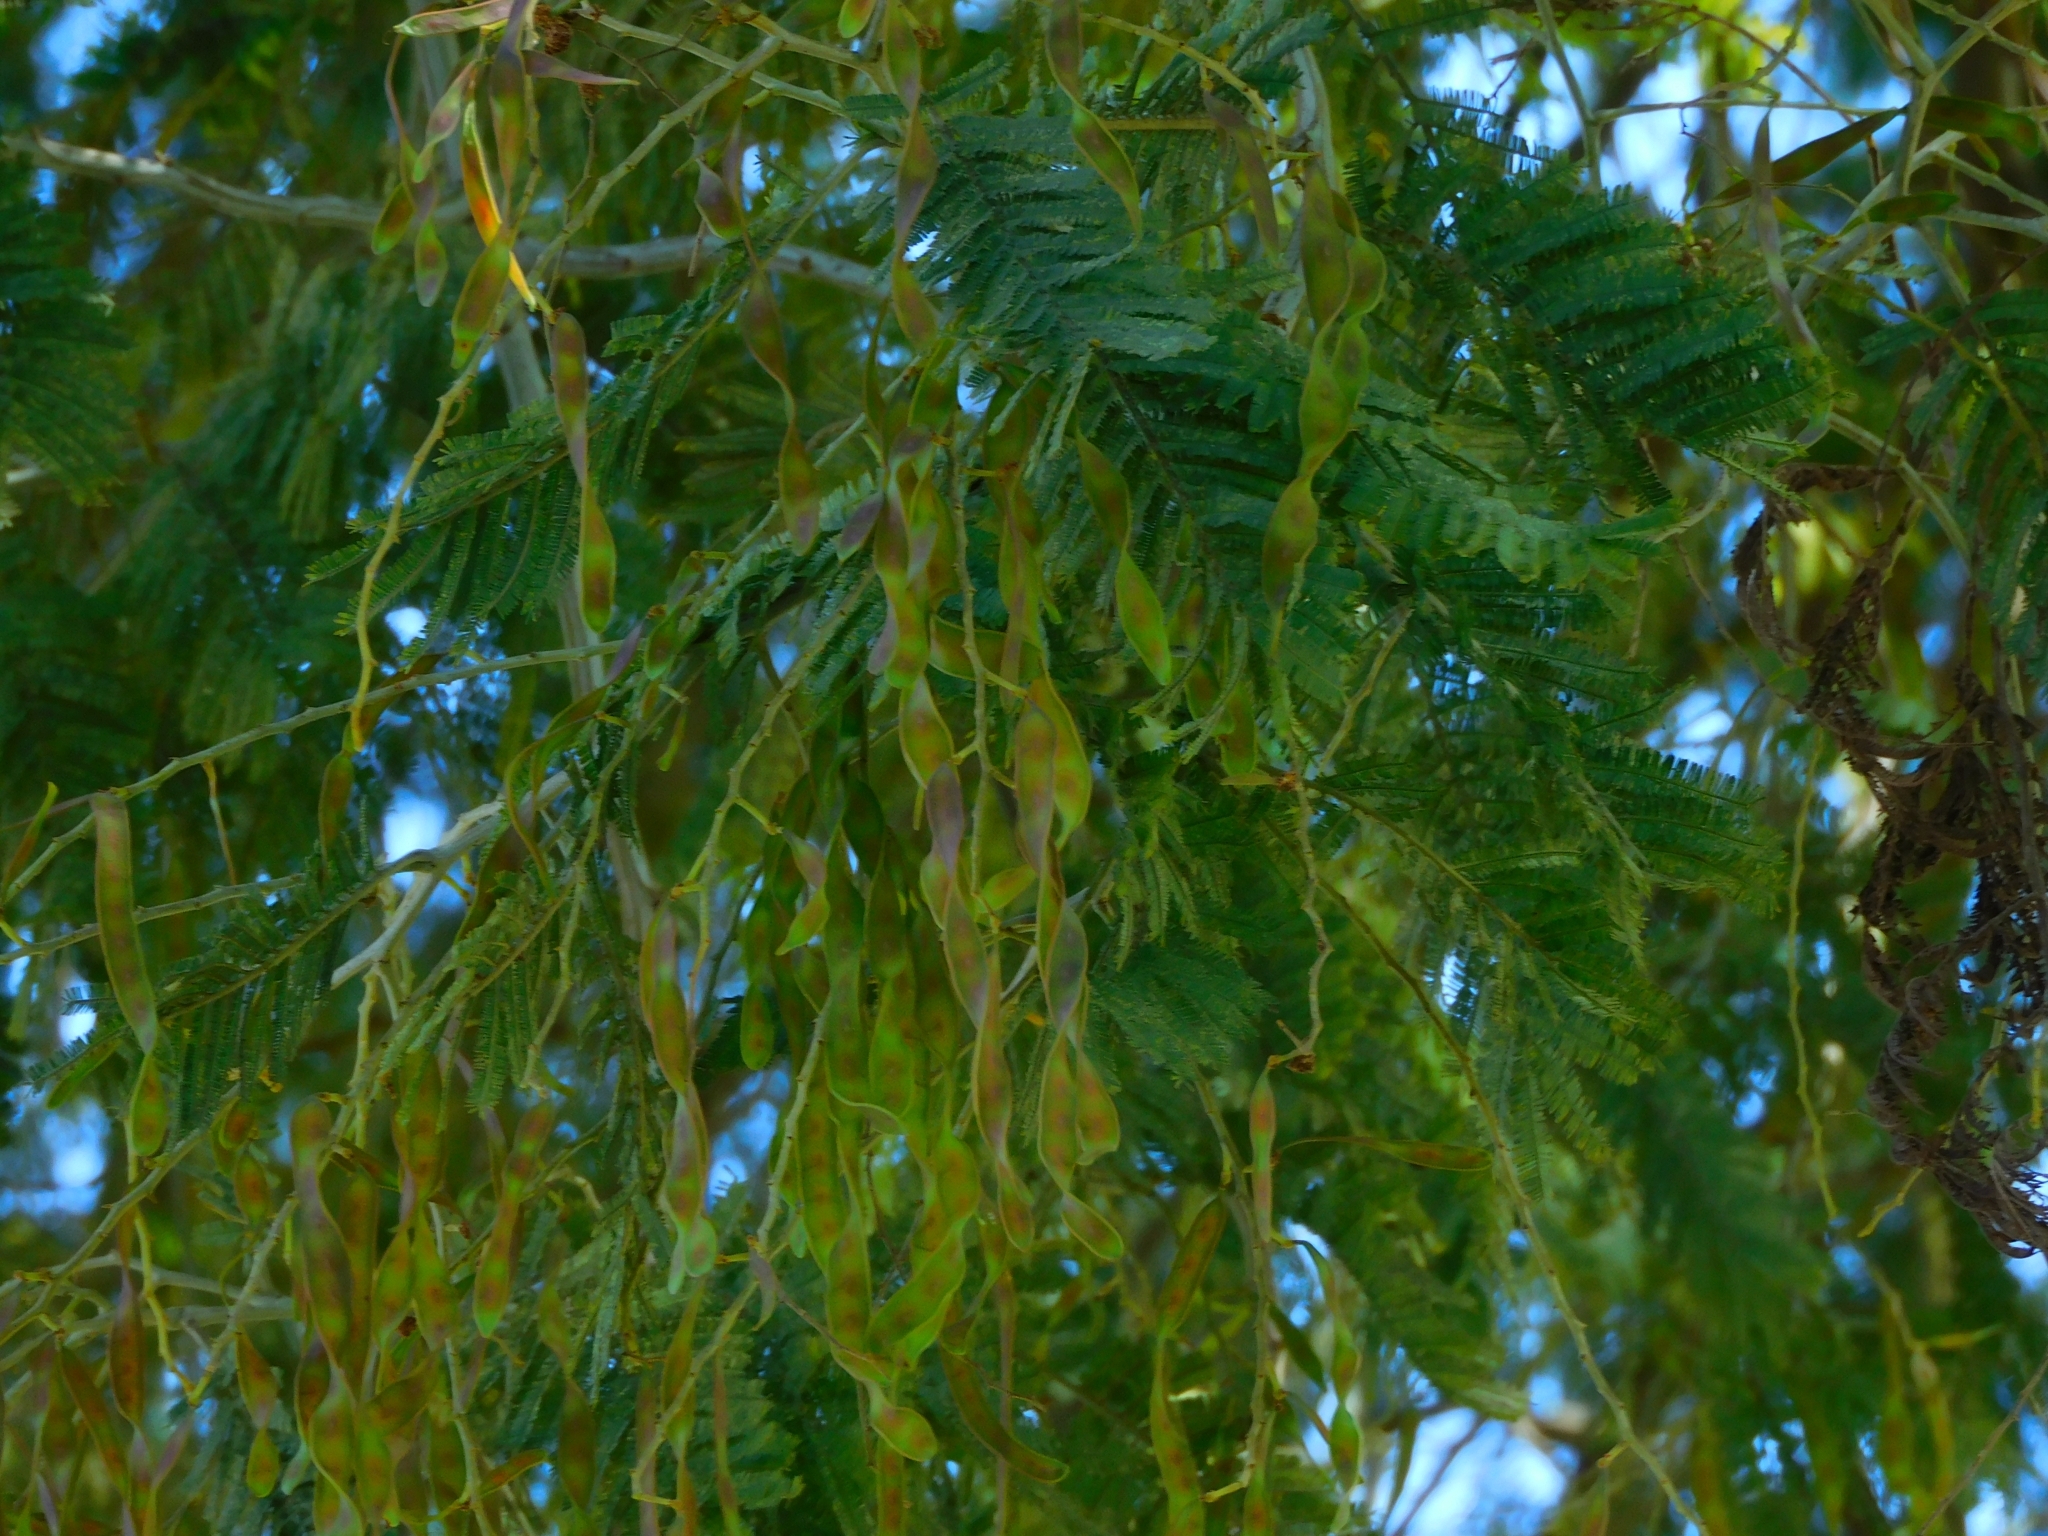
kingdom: Plantae
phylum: Tracheophyta
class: Magnoliopsida
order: Fabales
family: Fabaceae
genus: Acacia
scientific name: Acacia dealbata
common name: Silver wattle
